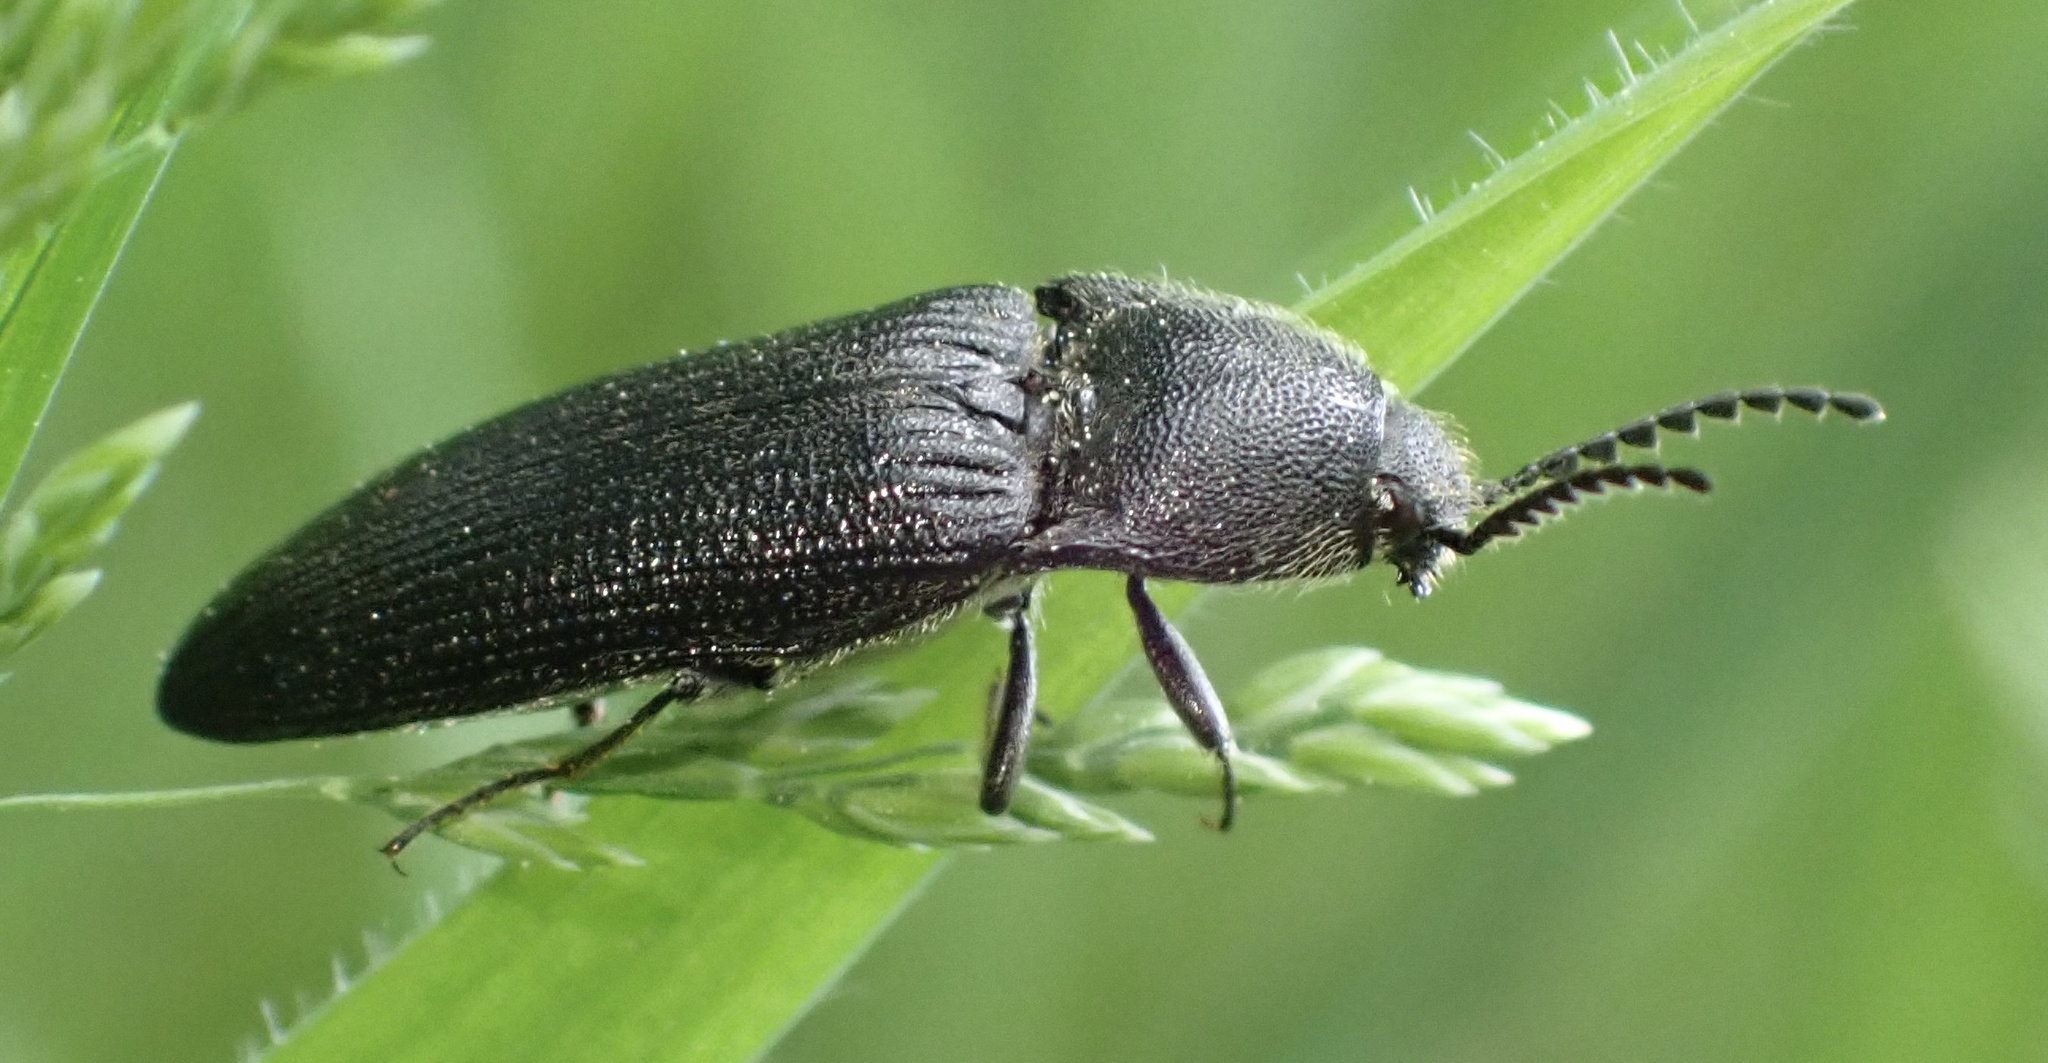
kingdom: Animalia
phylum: Arthropoda
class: Insecta
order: Coleoptera
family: Elateridae
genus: Melanotus
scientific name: Melanotus punctolineatus
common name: Sandwich click beetle
